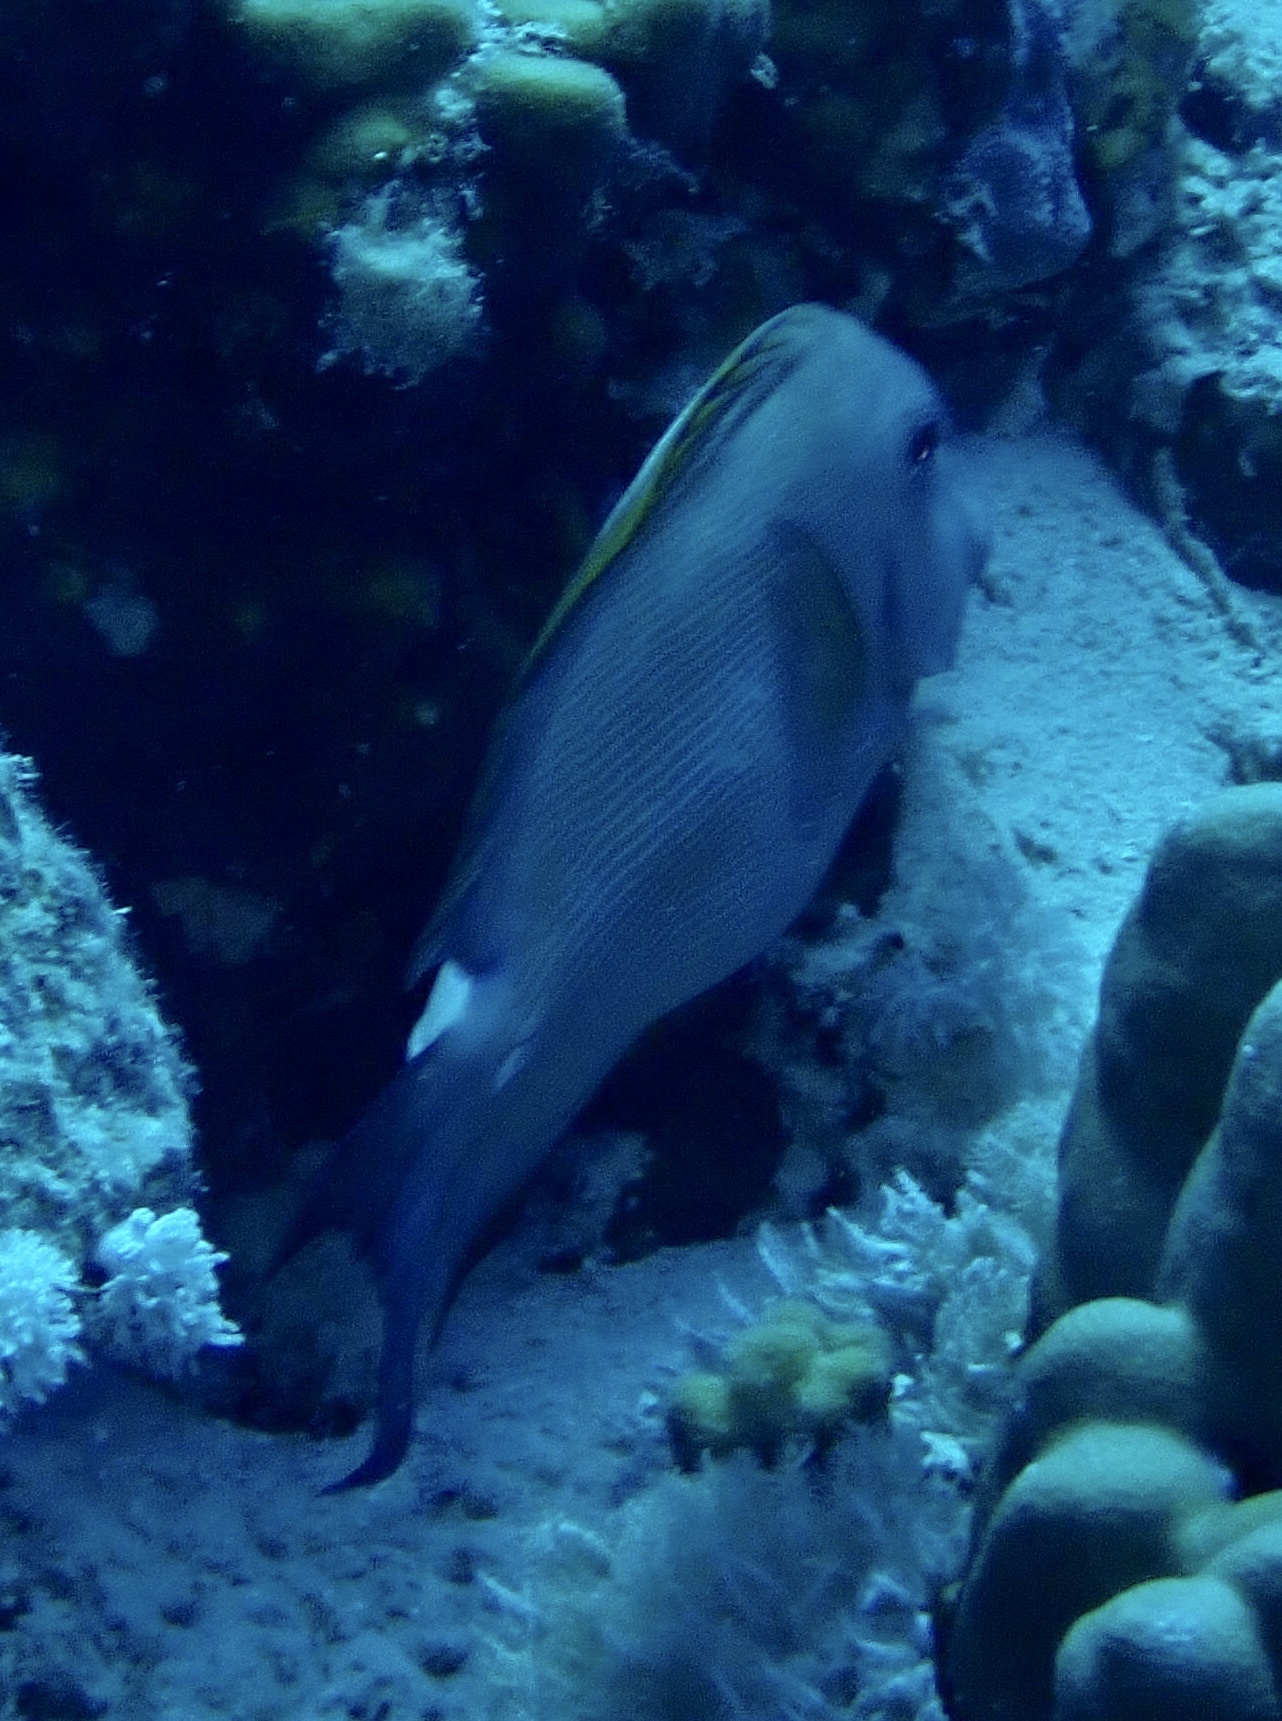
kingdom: Animalia
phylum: Chordata
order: Perciformes
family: Acanthuridae
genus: Ctenochaetus
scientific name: Ctenochaetus striatus
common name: Bristle-toothed surgeonfish
